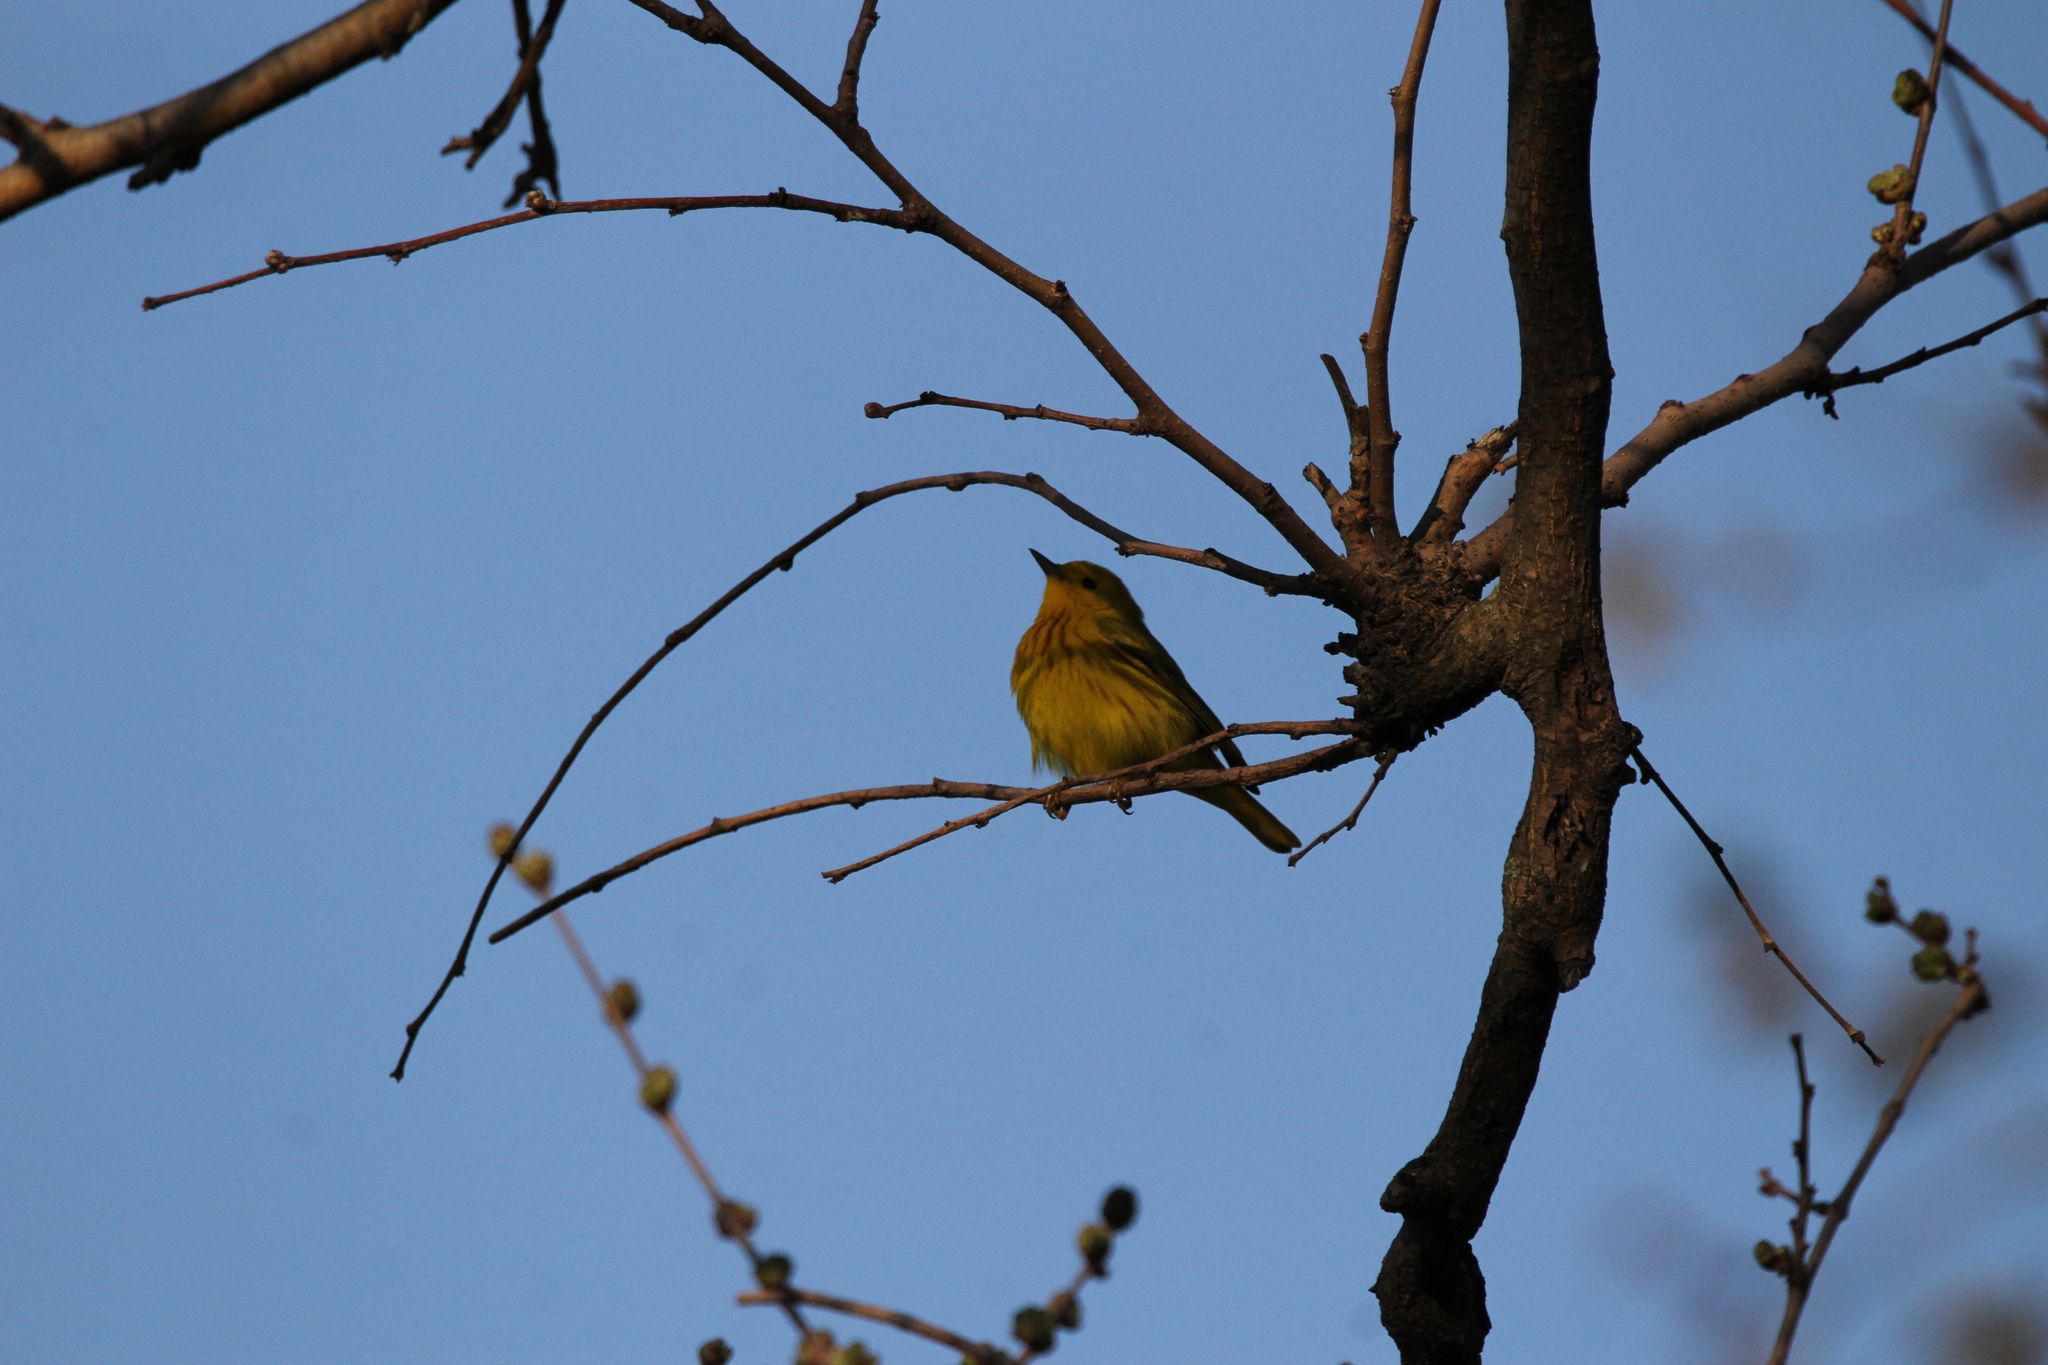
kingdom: Animalia
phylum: Chordata
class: Aves
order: Passeriformes
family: Parulidae
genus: Setophaga
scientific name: Setophaga petechia
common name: Yellow warbler
